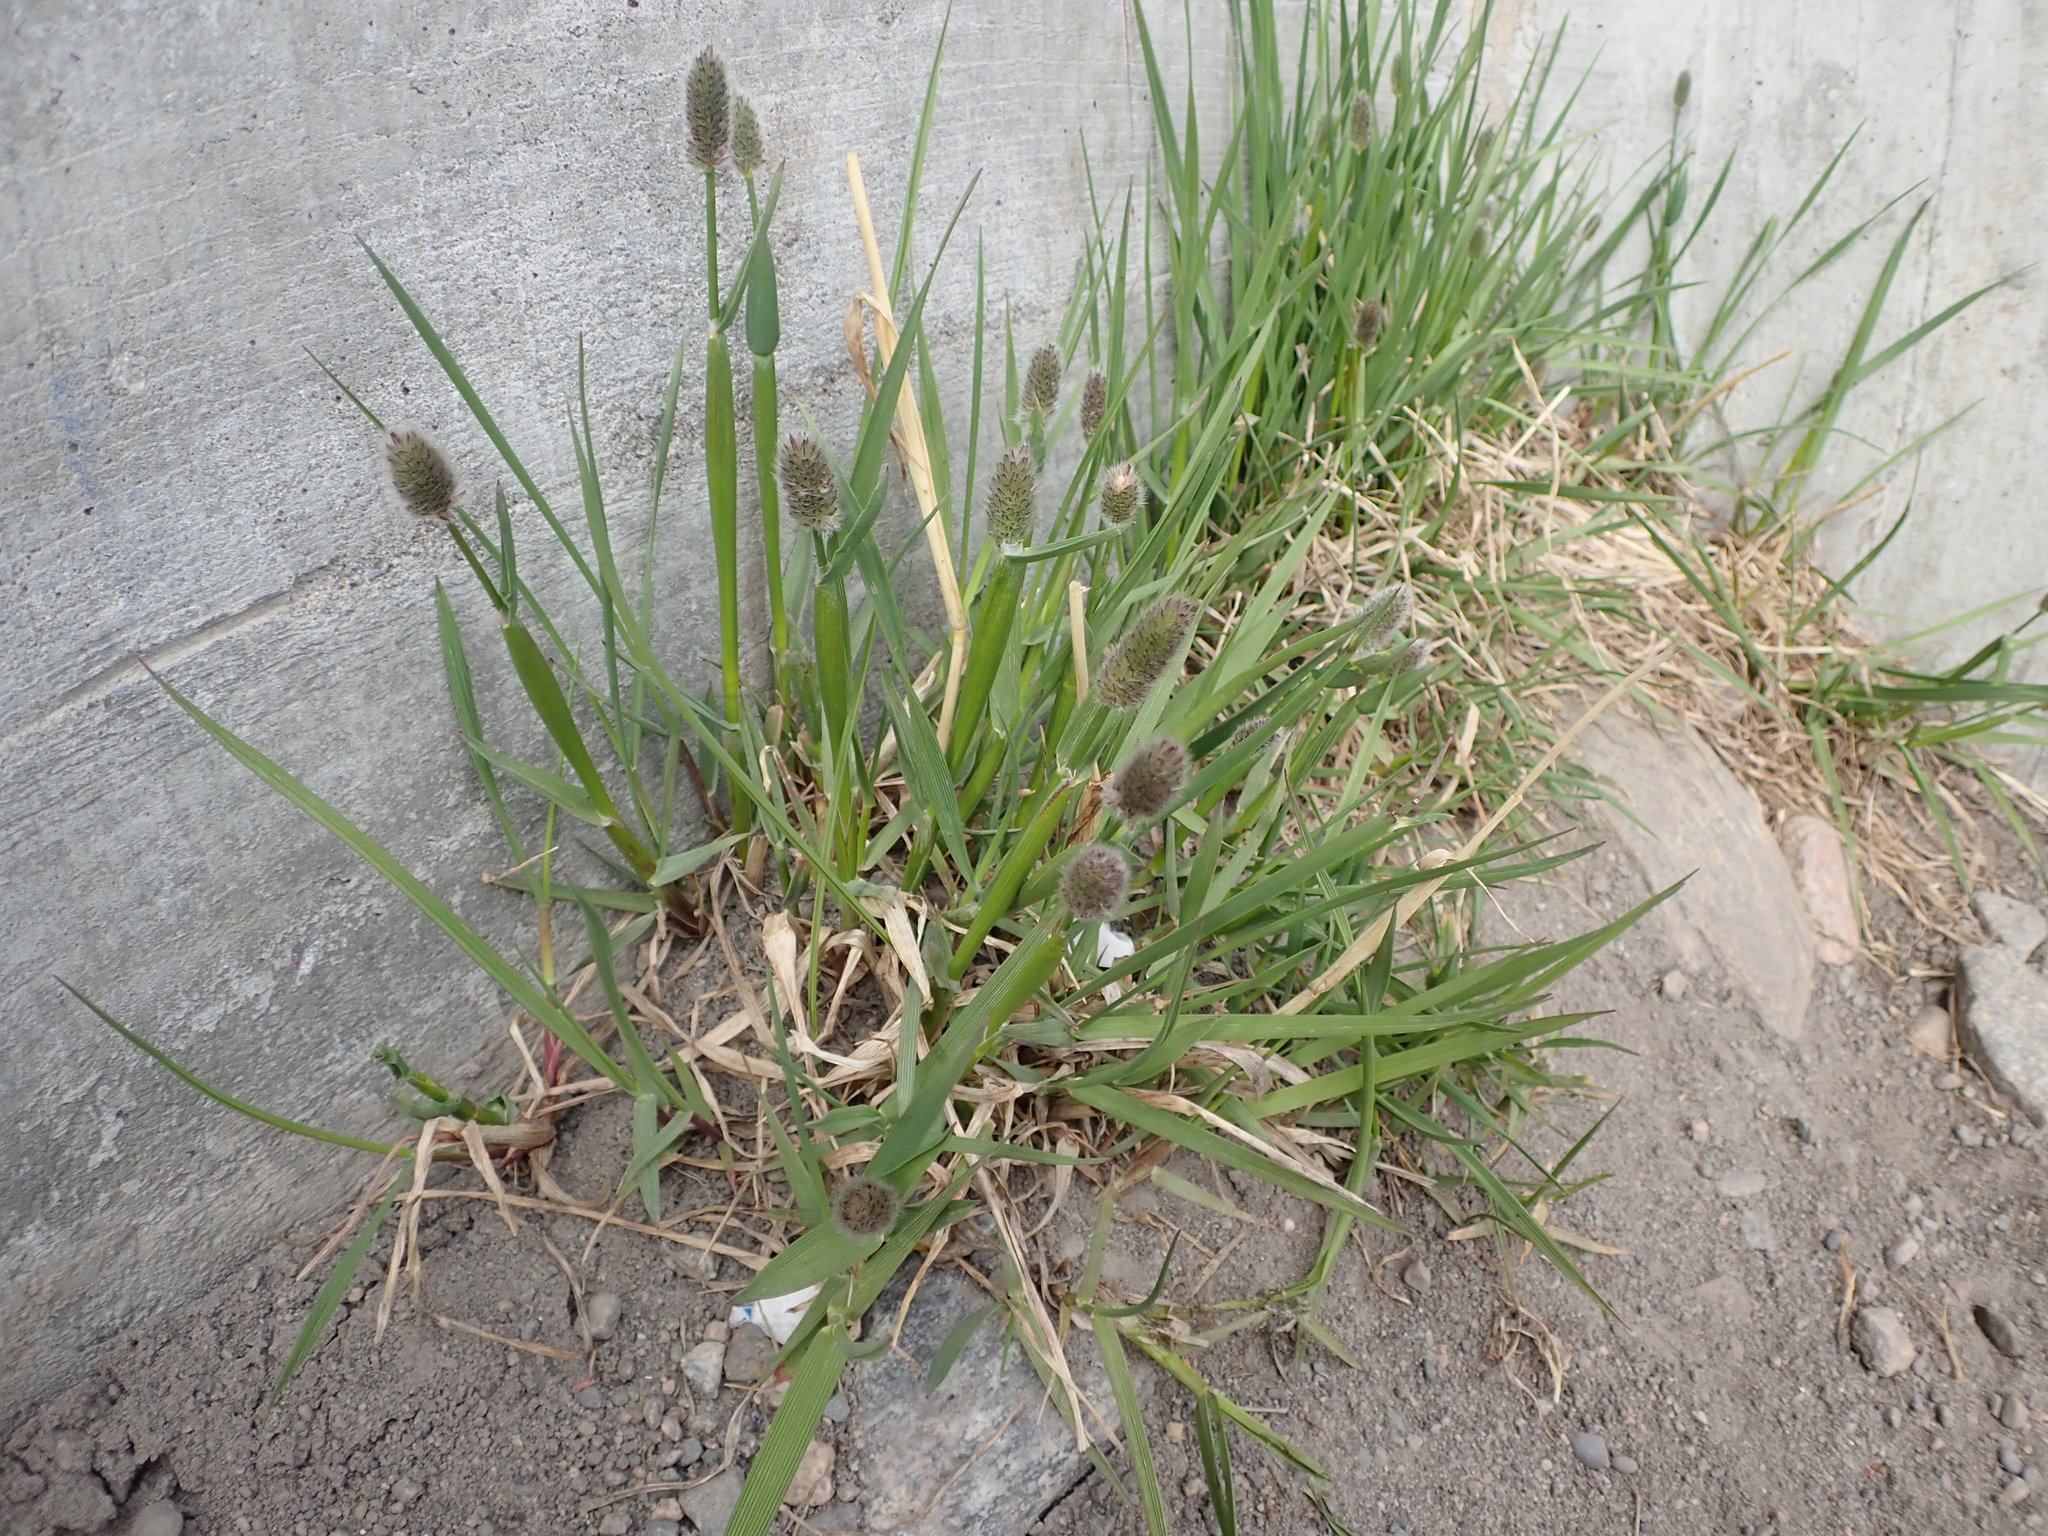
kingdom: Plantae
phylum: Tracheophyta
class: Liliopsida
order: Poales
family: Poaceae
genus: Phleum
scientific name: Phleum alpinum
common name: Alpine cat's-tail
